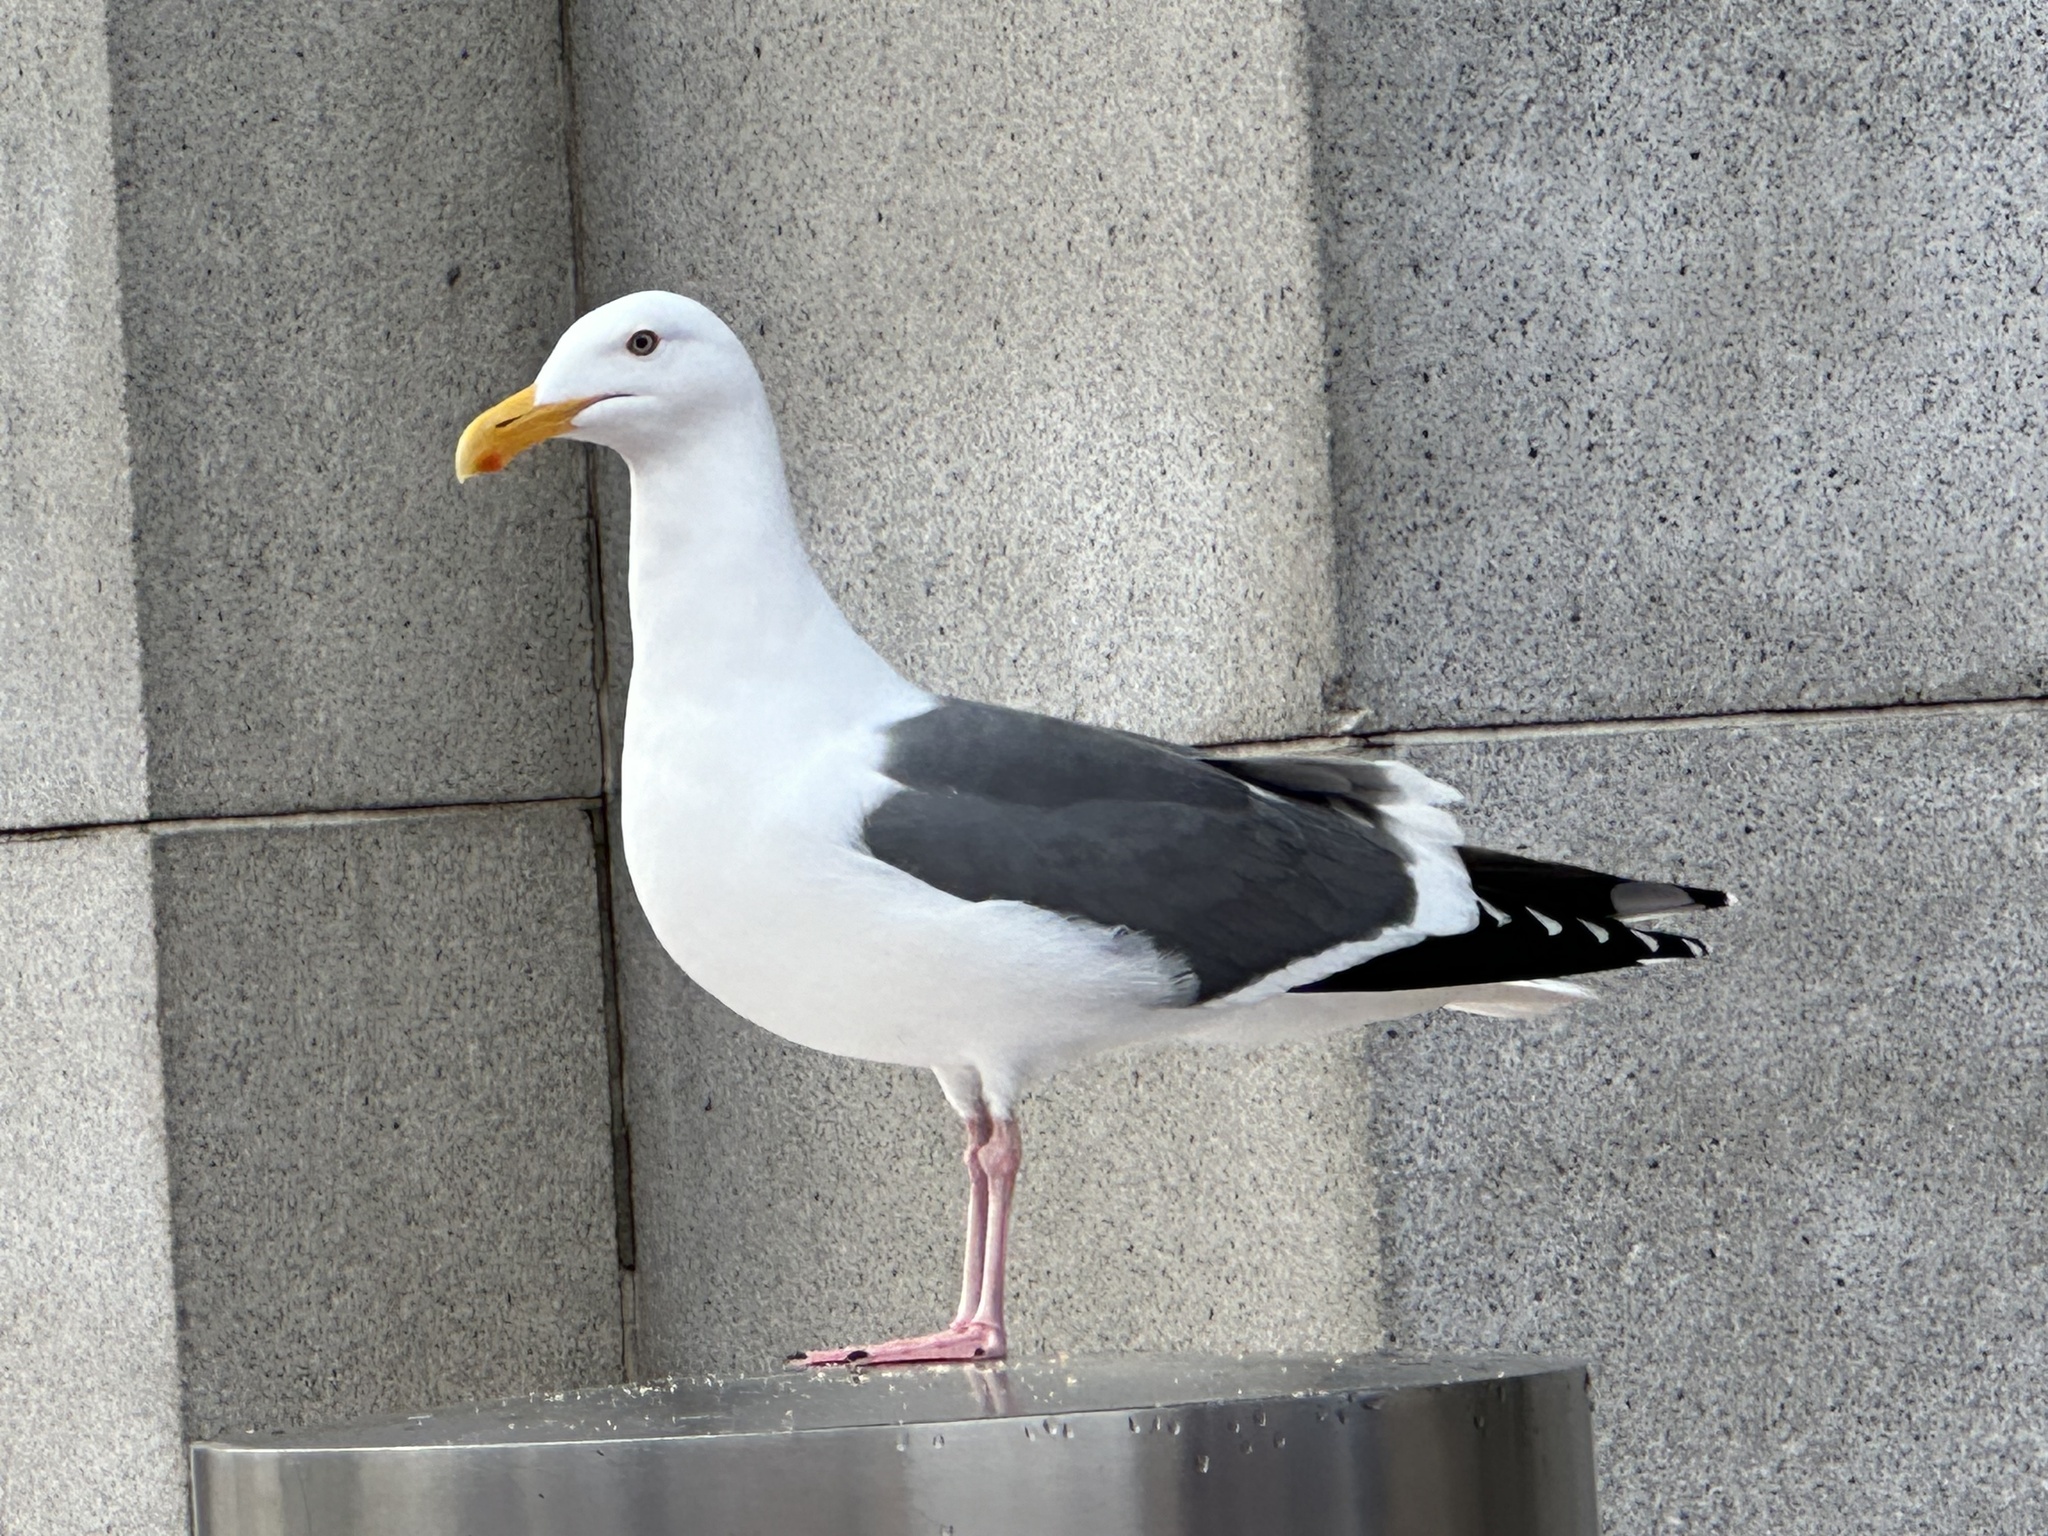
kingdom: Animalia
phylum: Chordata
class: Aves
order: Charadriiformes
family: Laridae
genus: Larus
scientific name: Larus occidentalis
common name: Western gull
